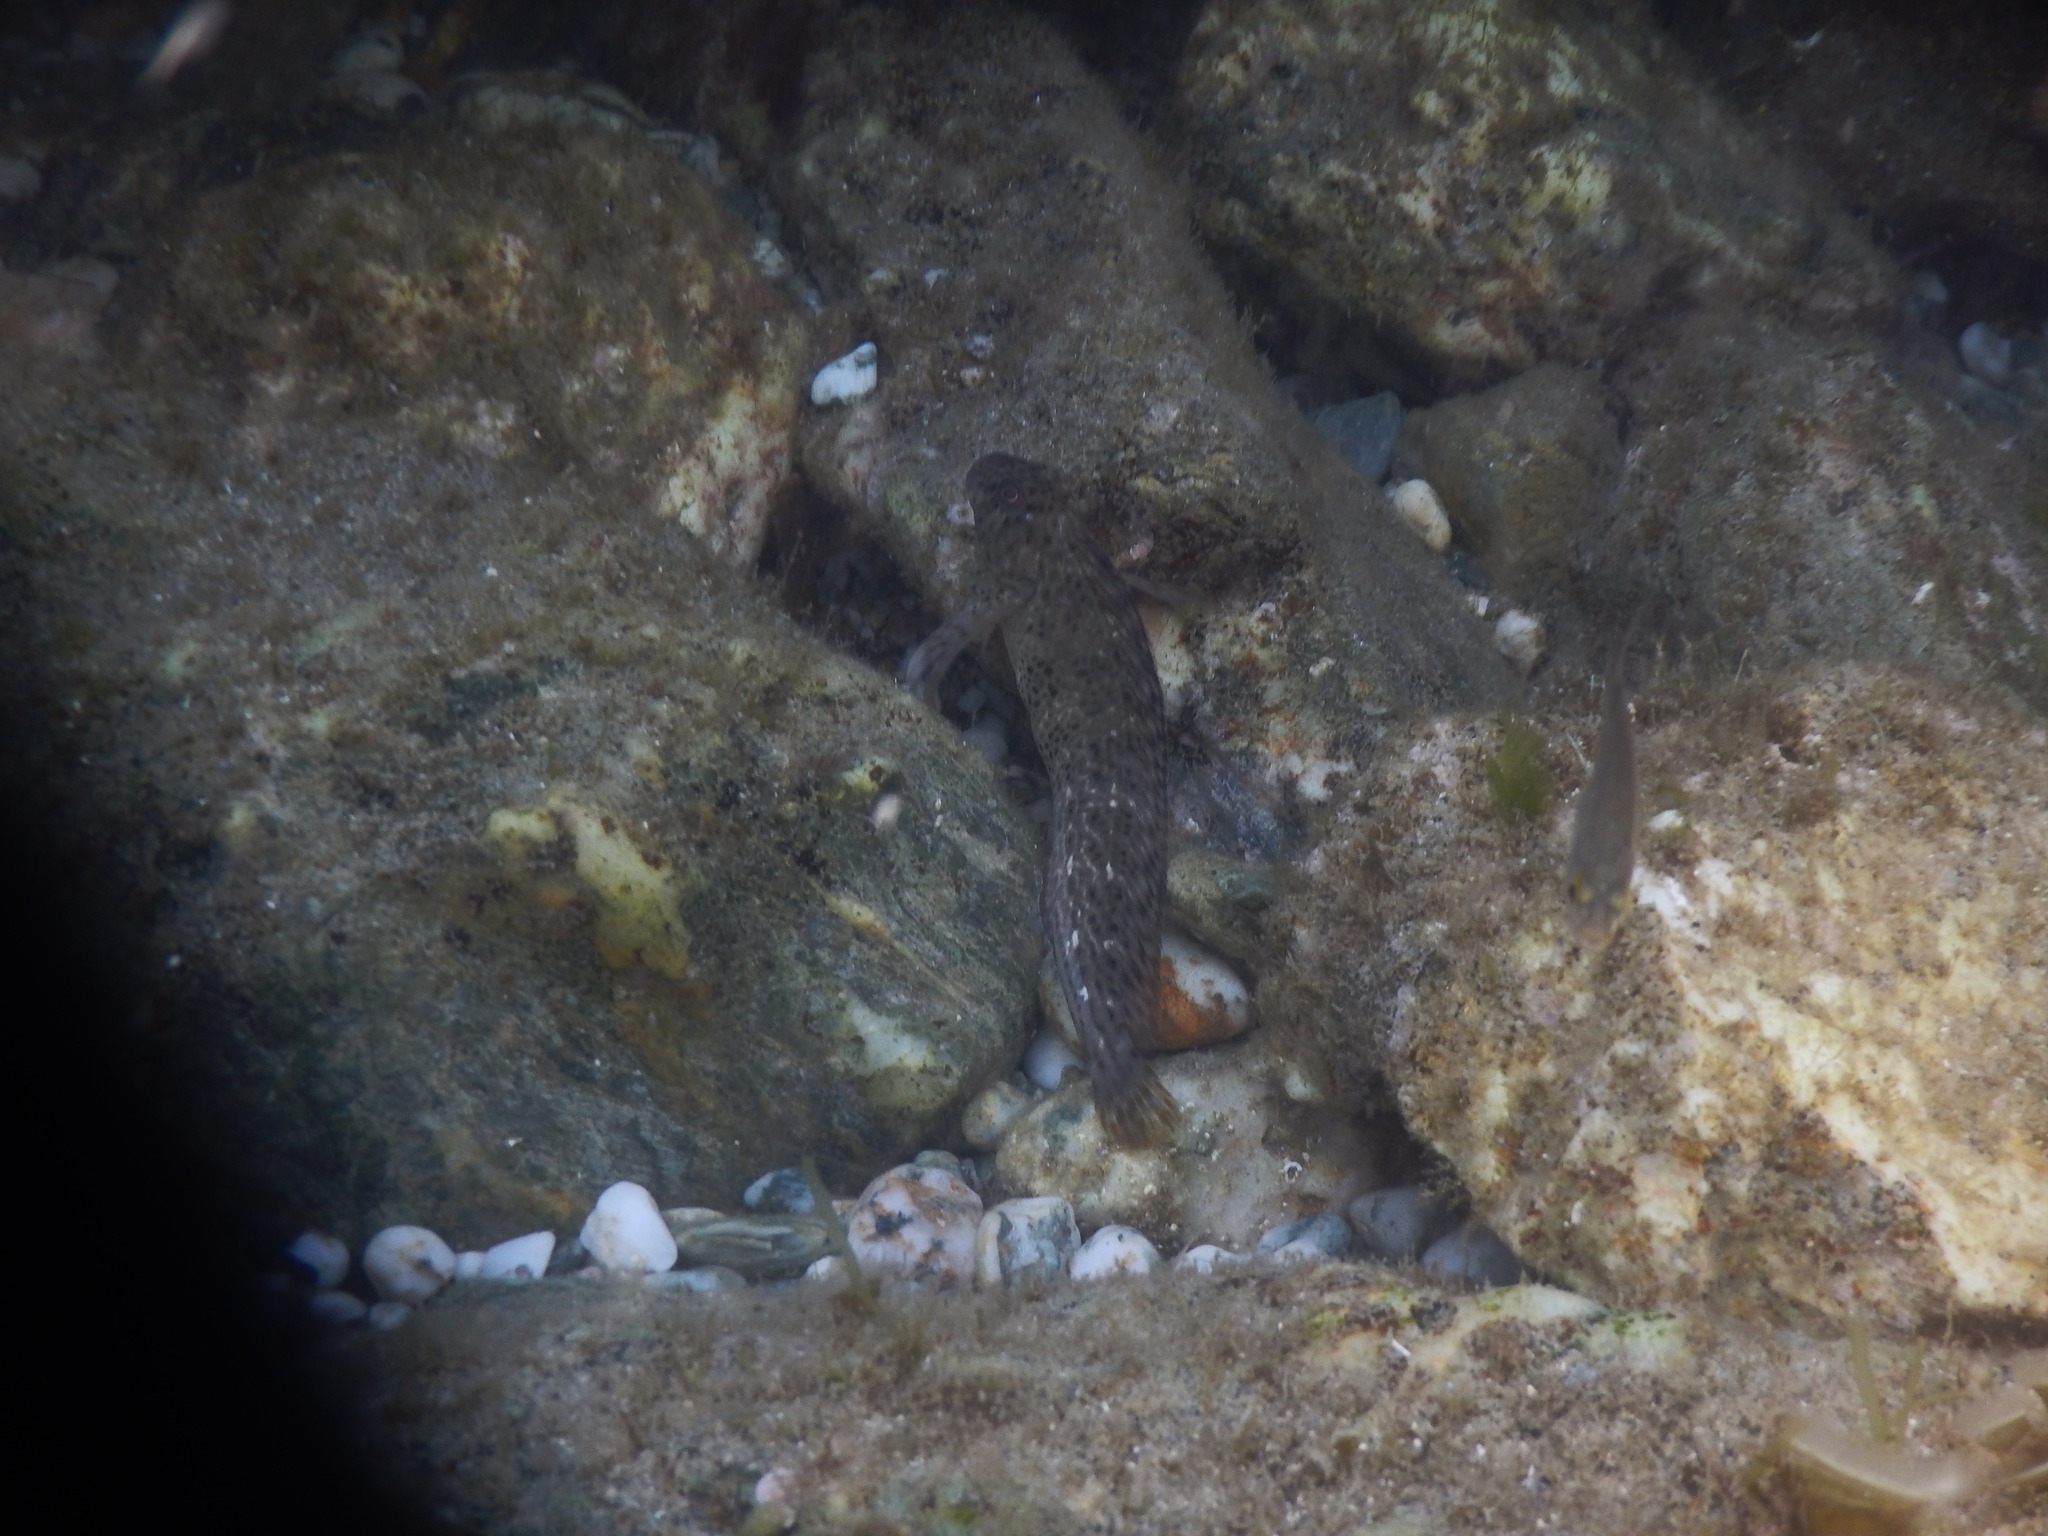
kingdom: Animalia
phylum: Chordata
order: Perciformes
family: Blenniidae
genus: Parablennius
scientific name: Parablennius sanguinolentus
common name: Black sea blenny
